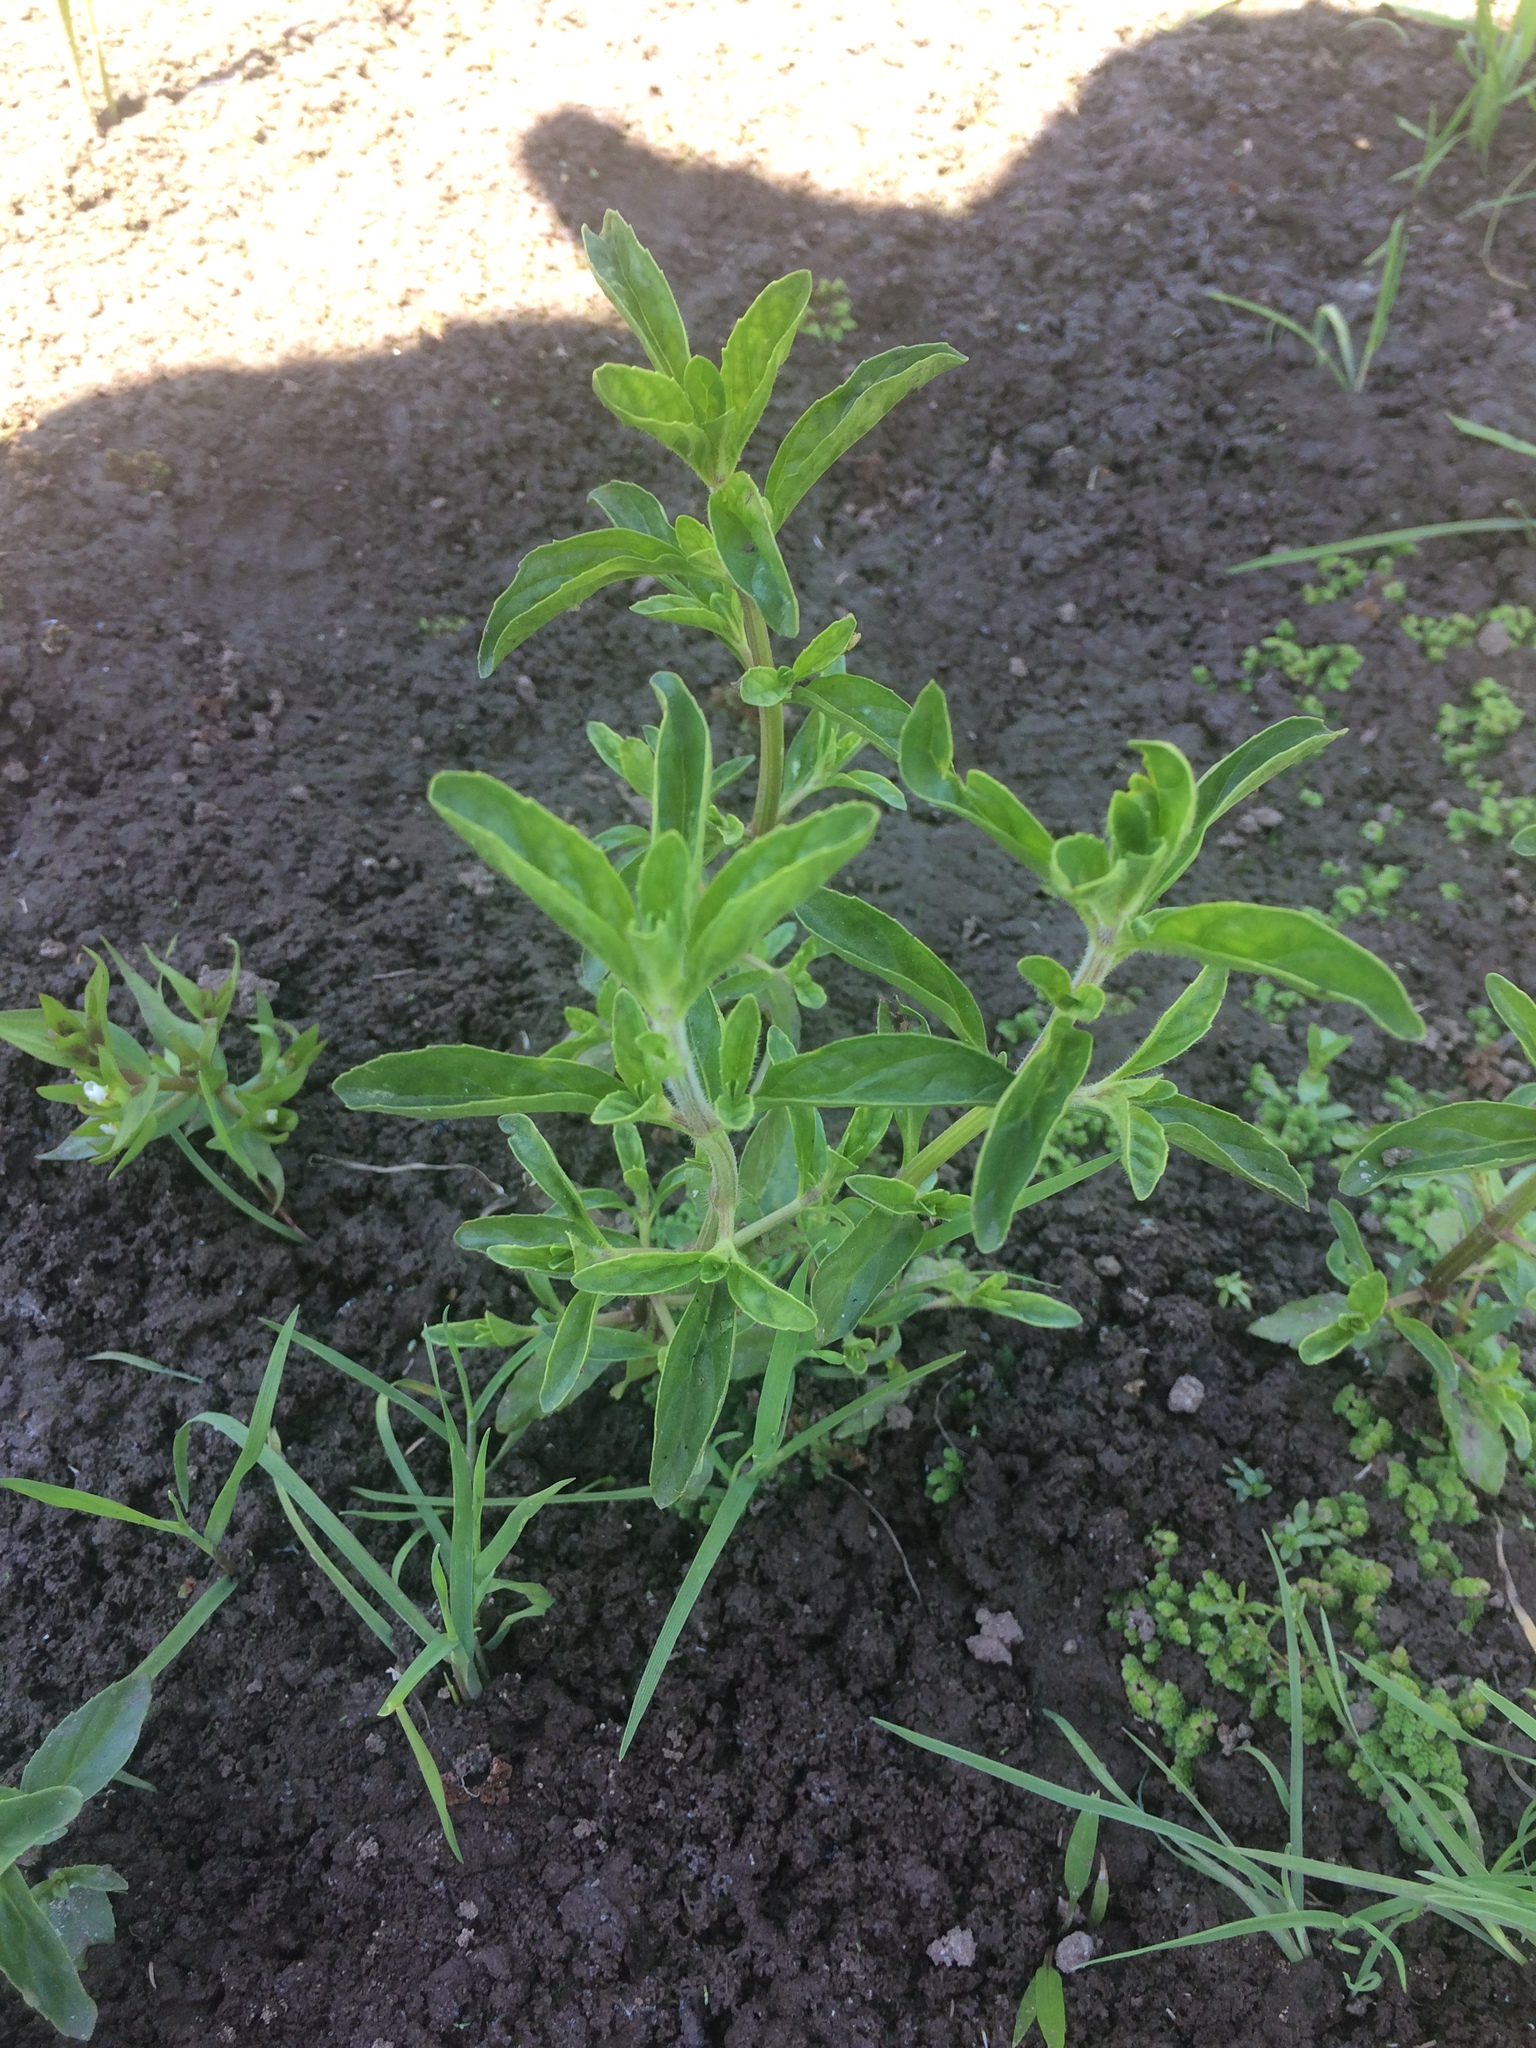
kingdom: Plantae
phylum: Tracheophyta
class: Magnoliopsida
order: Lamiales
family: Lamiaceae
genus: Mentha
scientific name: Mentha pulegium
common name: Pennyroyal
